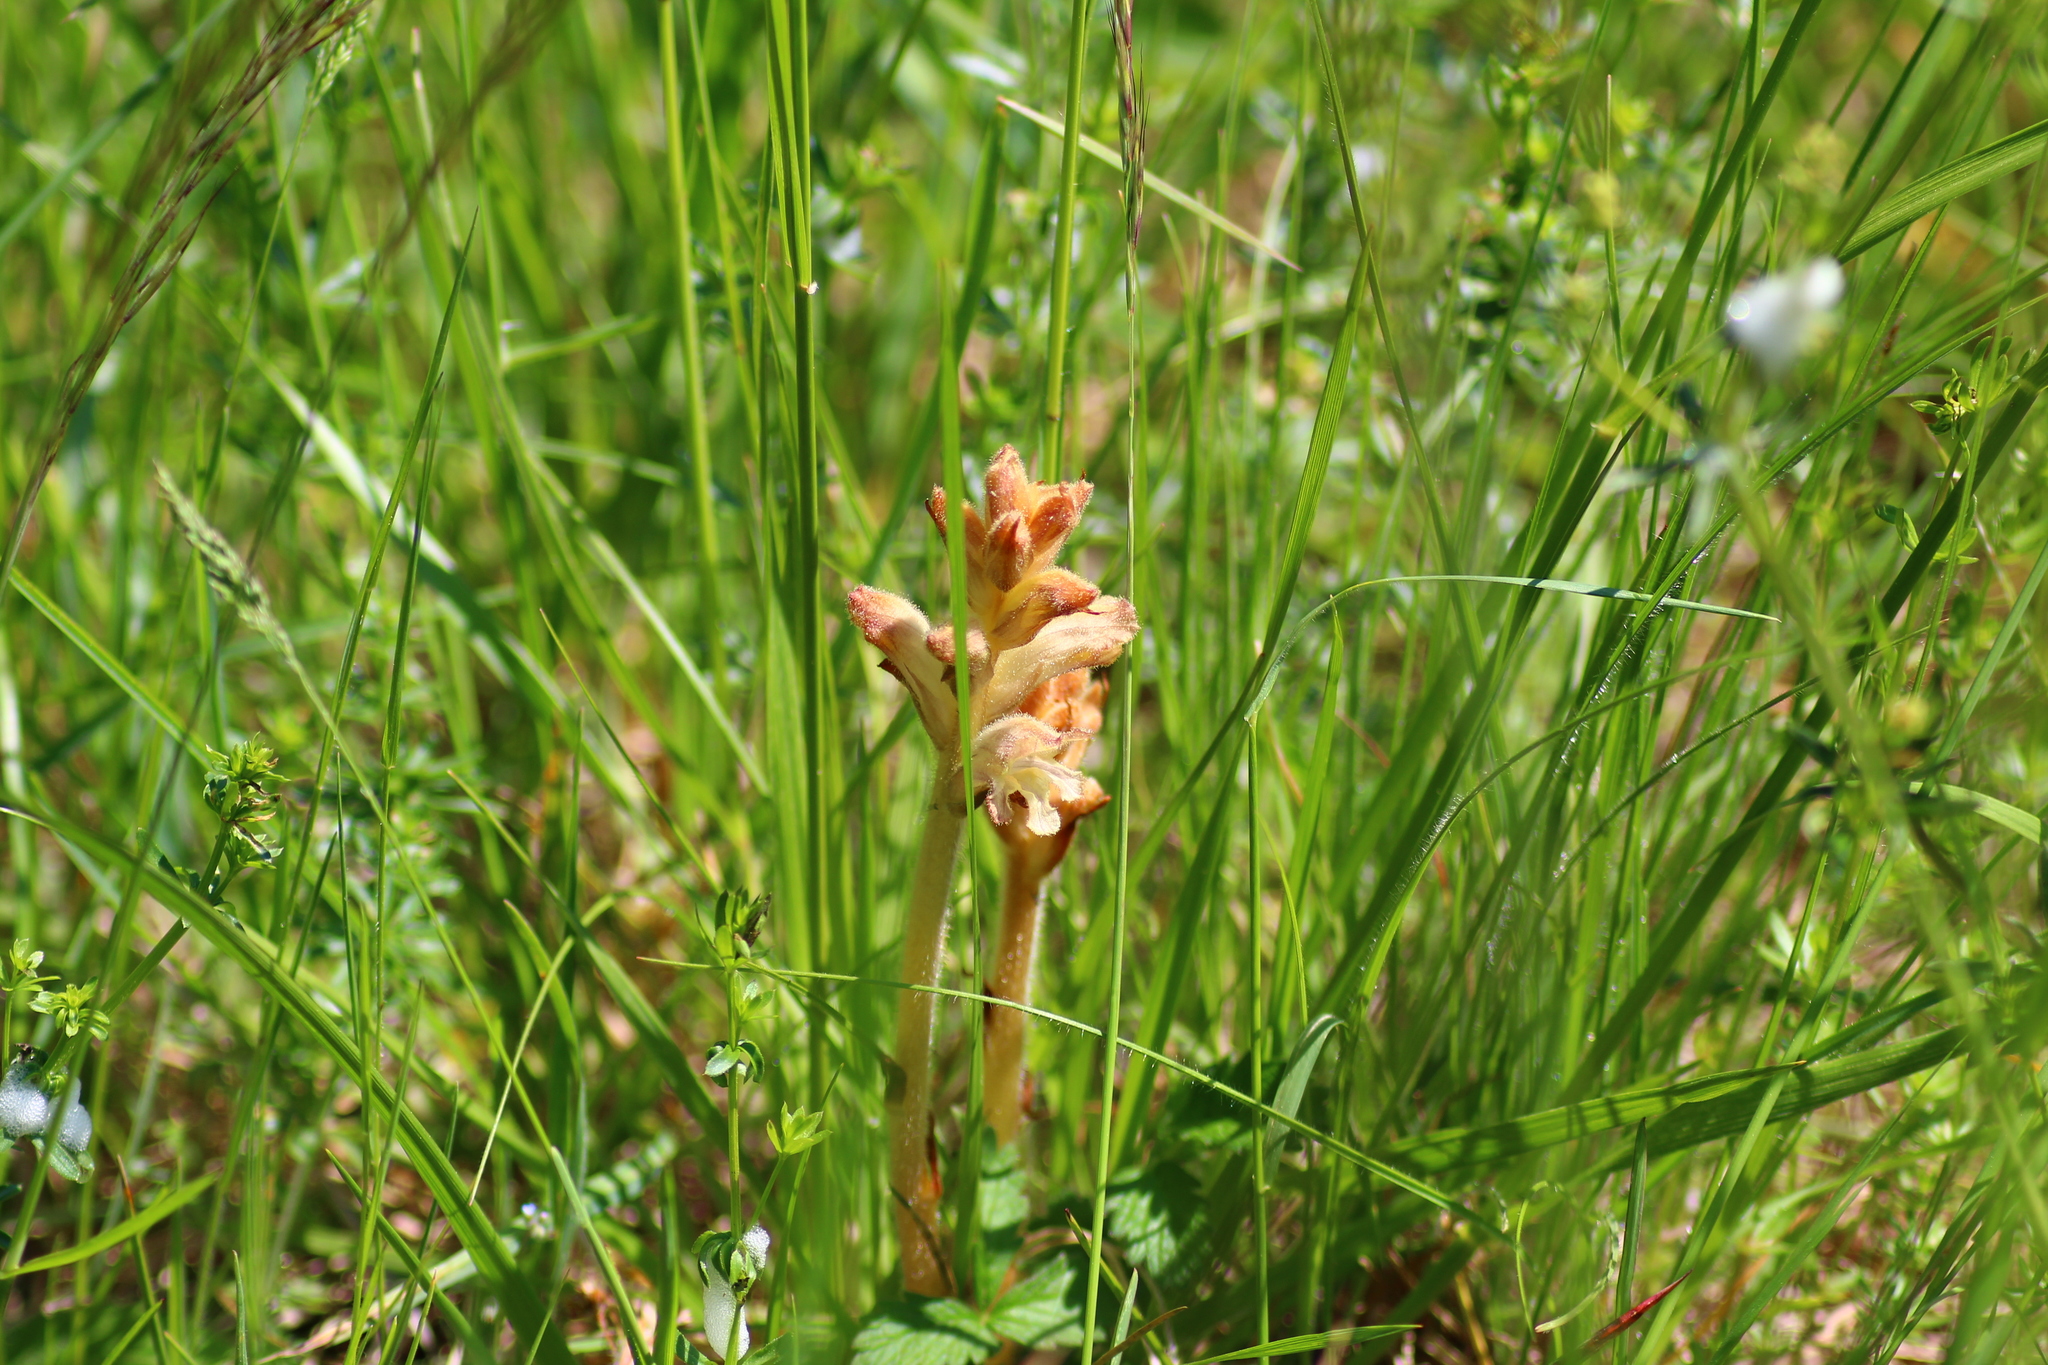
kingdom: Plantae
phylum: Tracheophyta
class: Magnoliopsida
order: Lamiales
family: Orobanchaceae
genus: Orobanche
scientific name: Orobanche caryophyllacea
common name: Bedstraw broomrape
